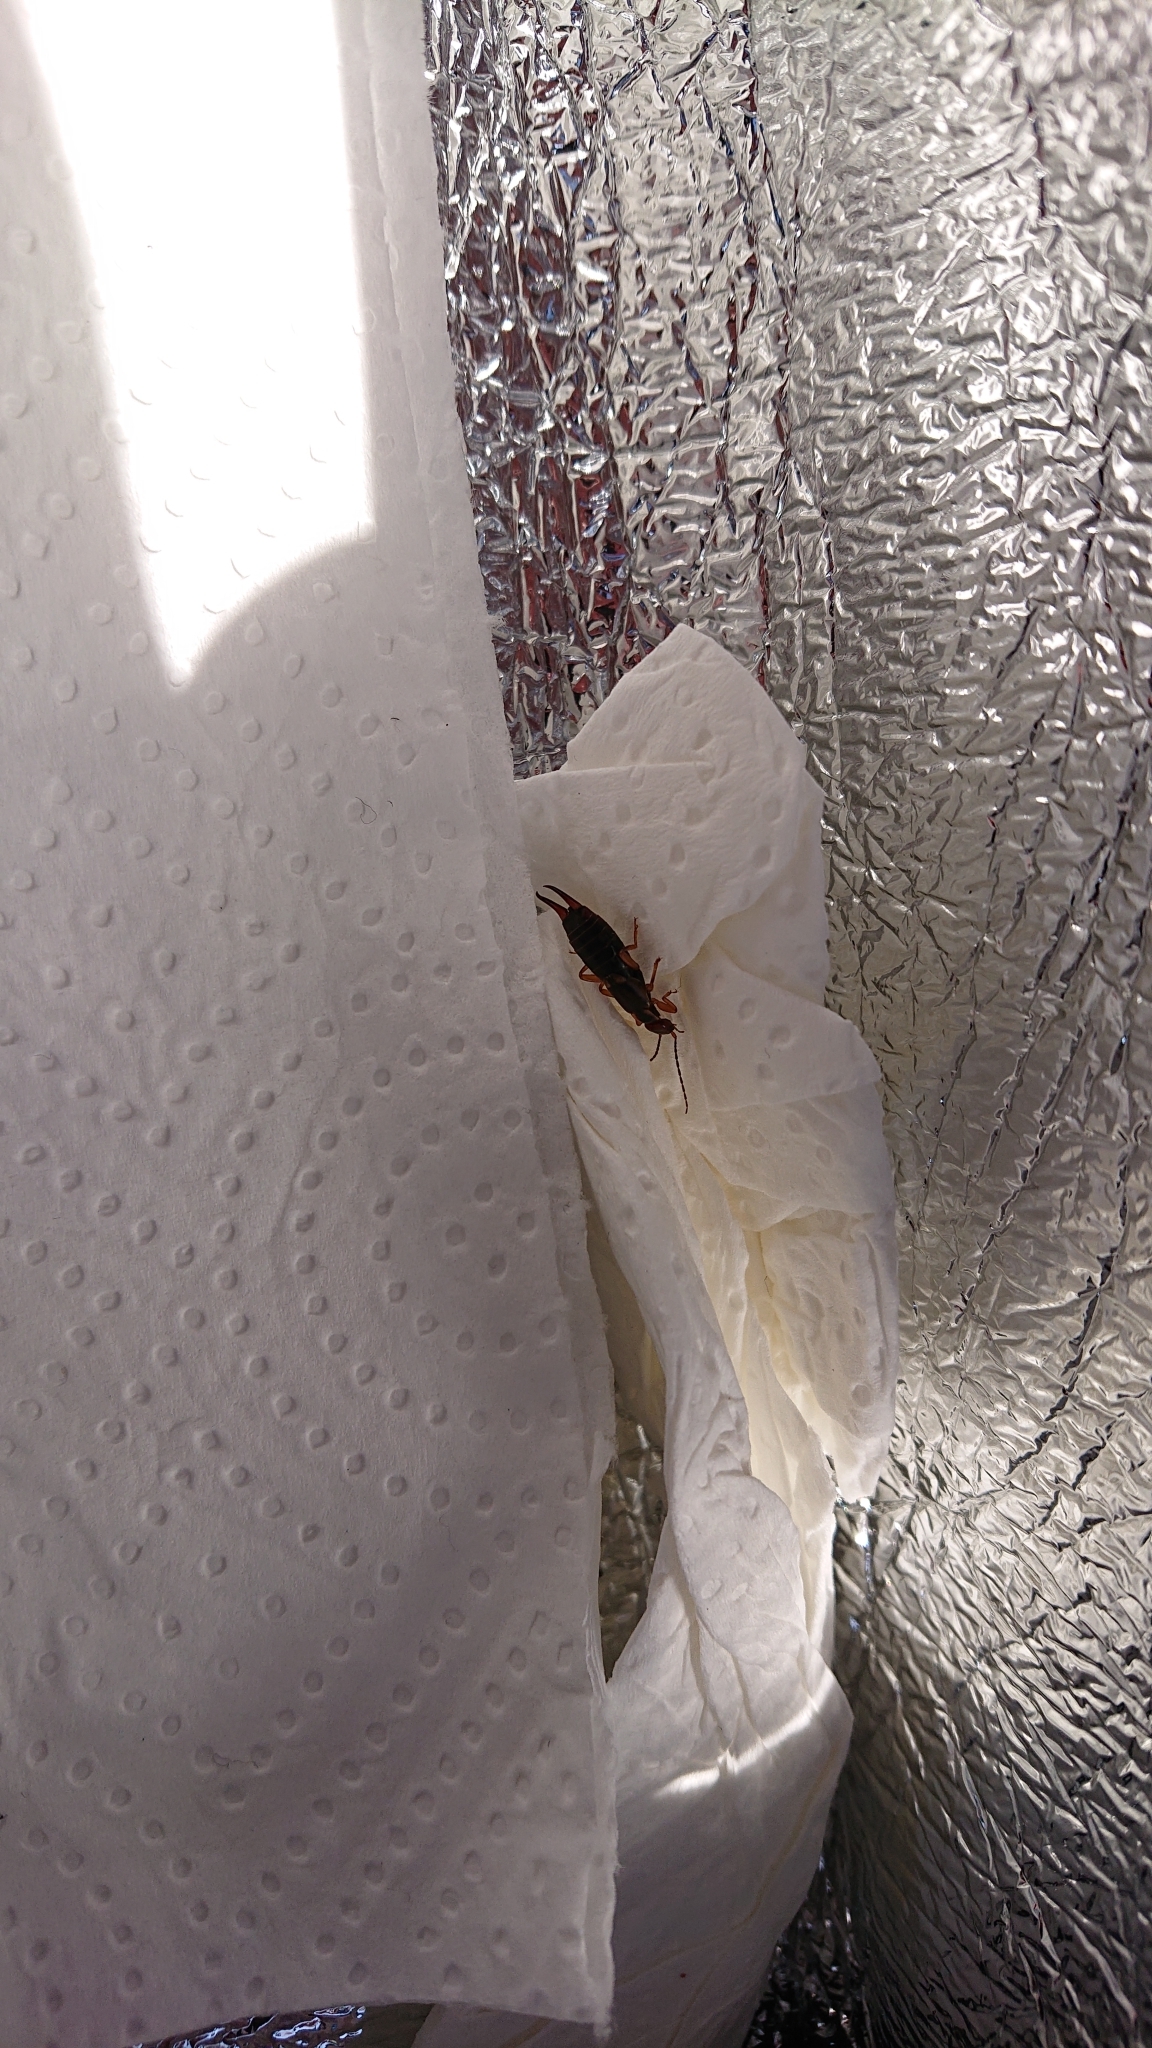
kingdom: Animalia
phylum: Arthropoda
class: Insecta
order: Dermaptera
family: Forficulidae
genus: Forficula
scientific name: Forficula
